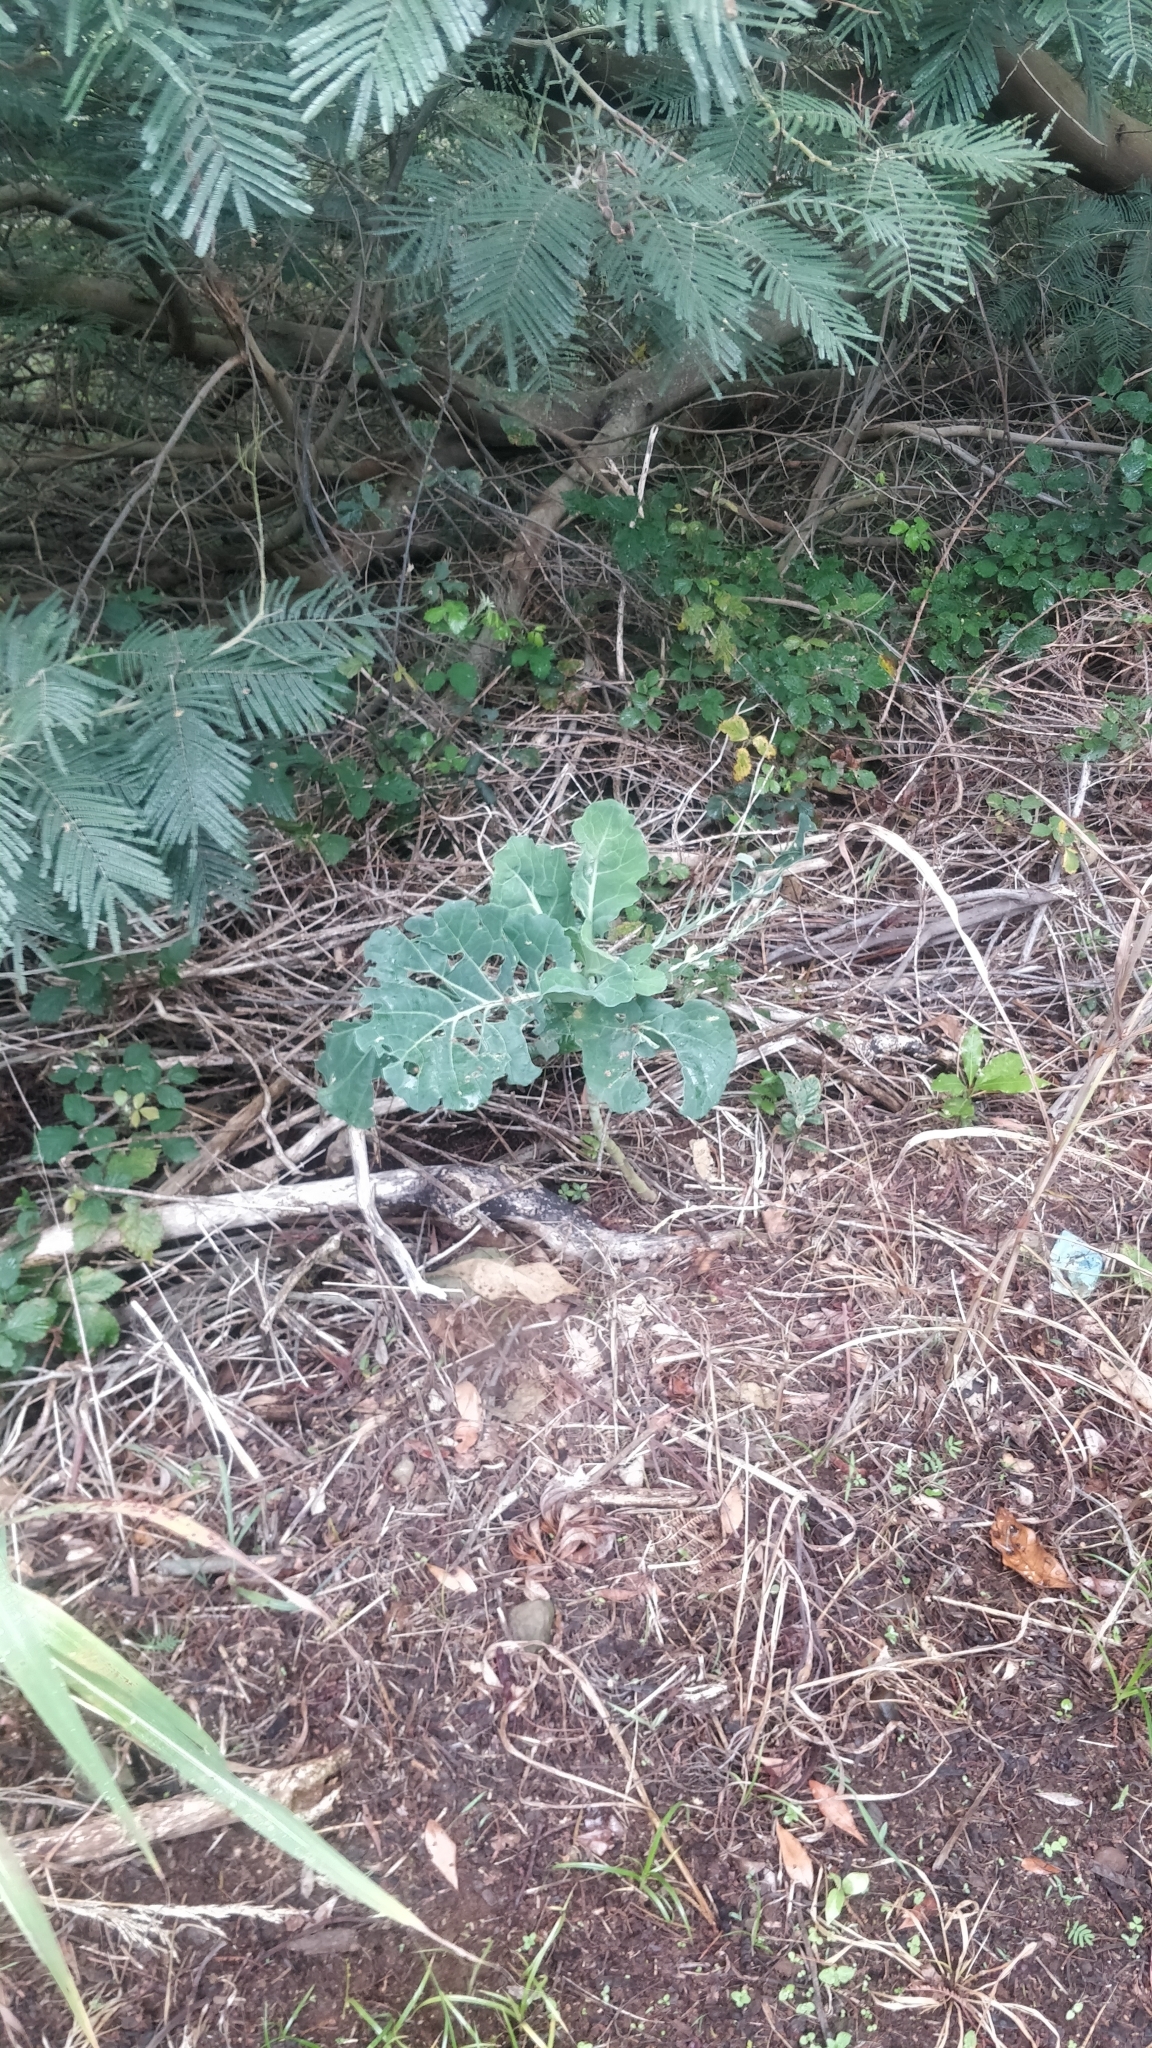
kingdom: Plantae
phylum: Tracheophyta
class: Magnoliopsida
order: Brassicales
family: Brassicaceae
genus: Brassica
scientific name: Brassica oleracea
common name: Cabbage
